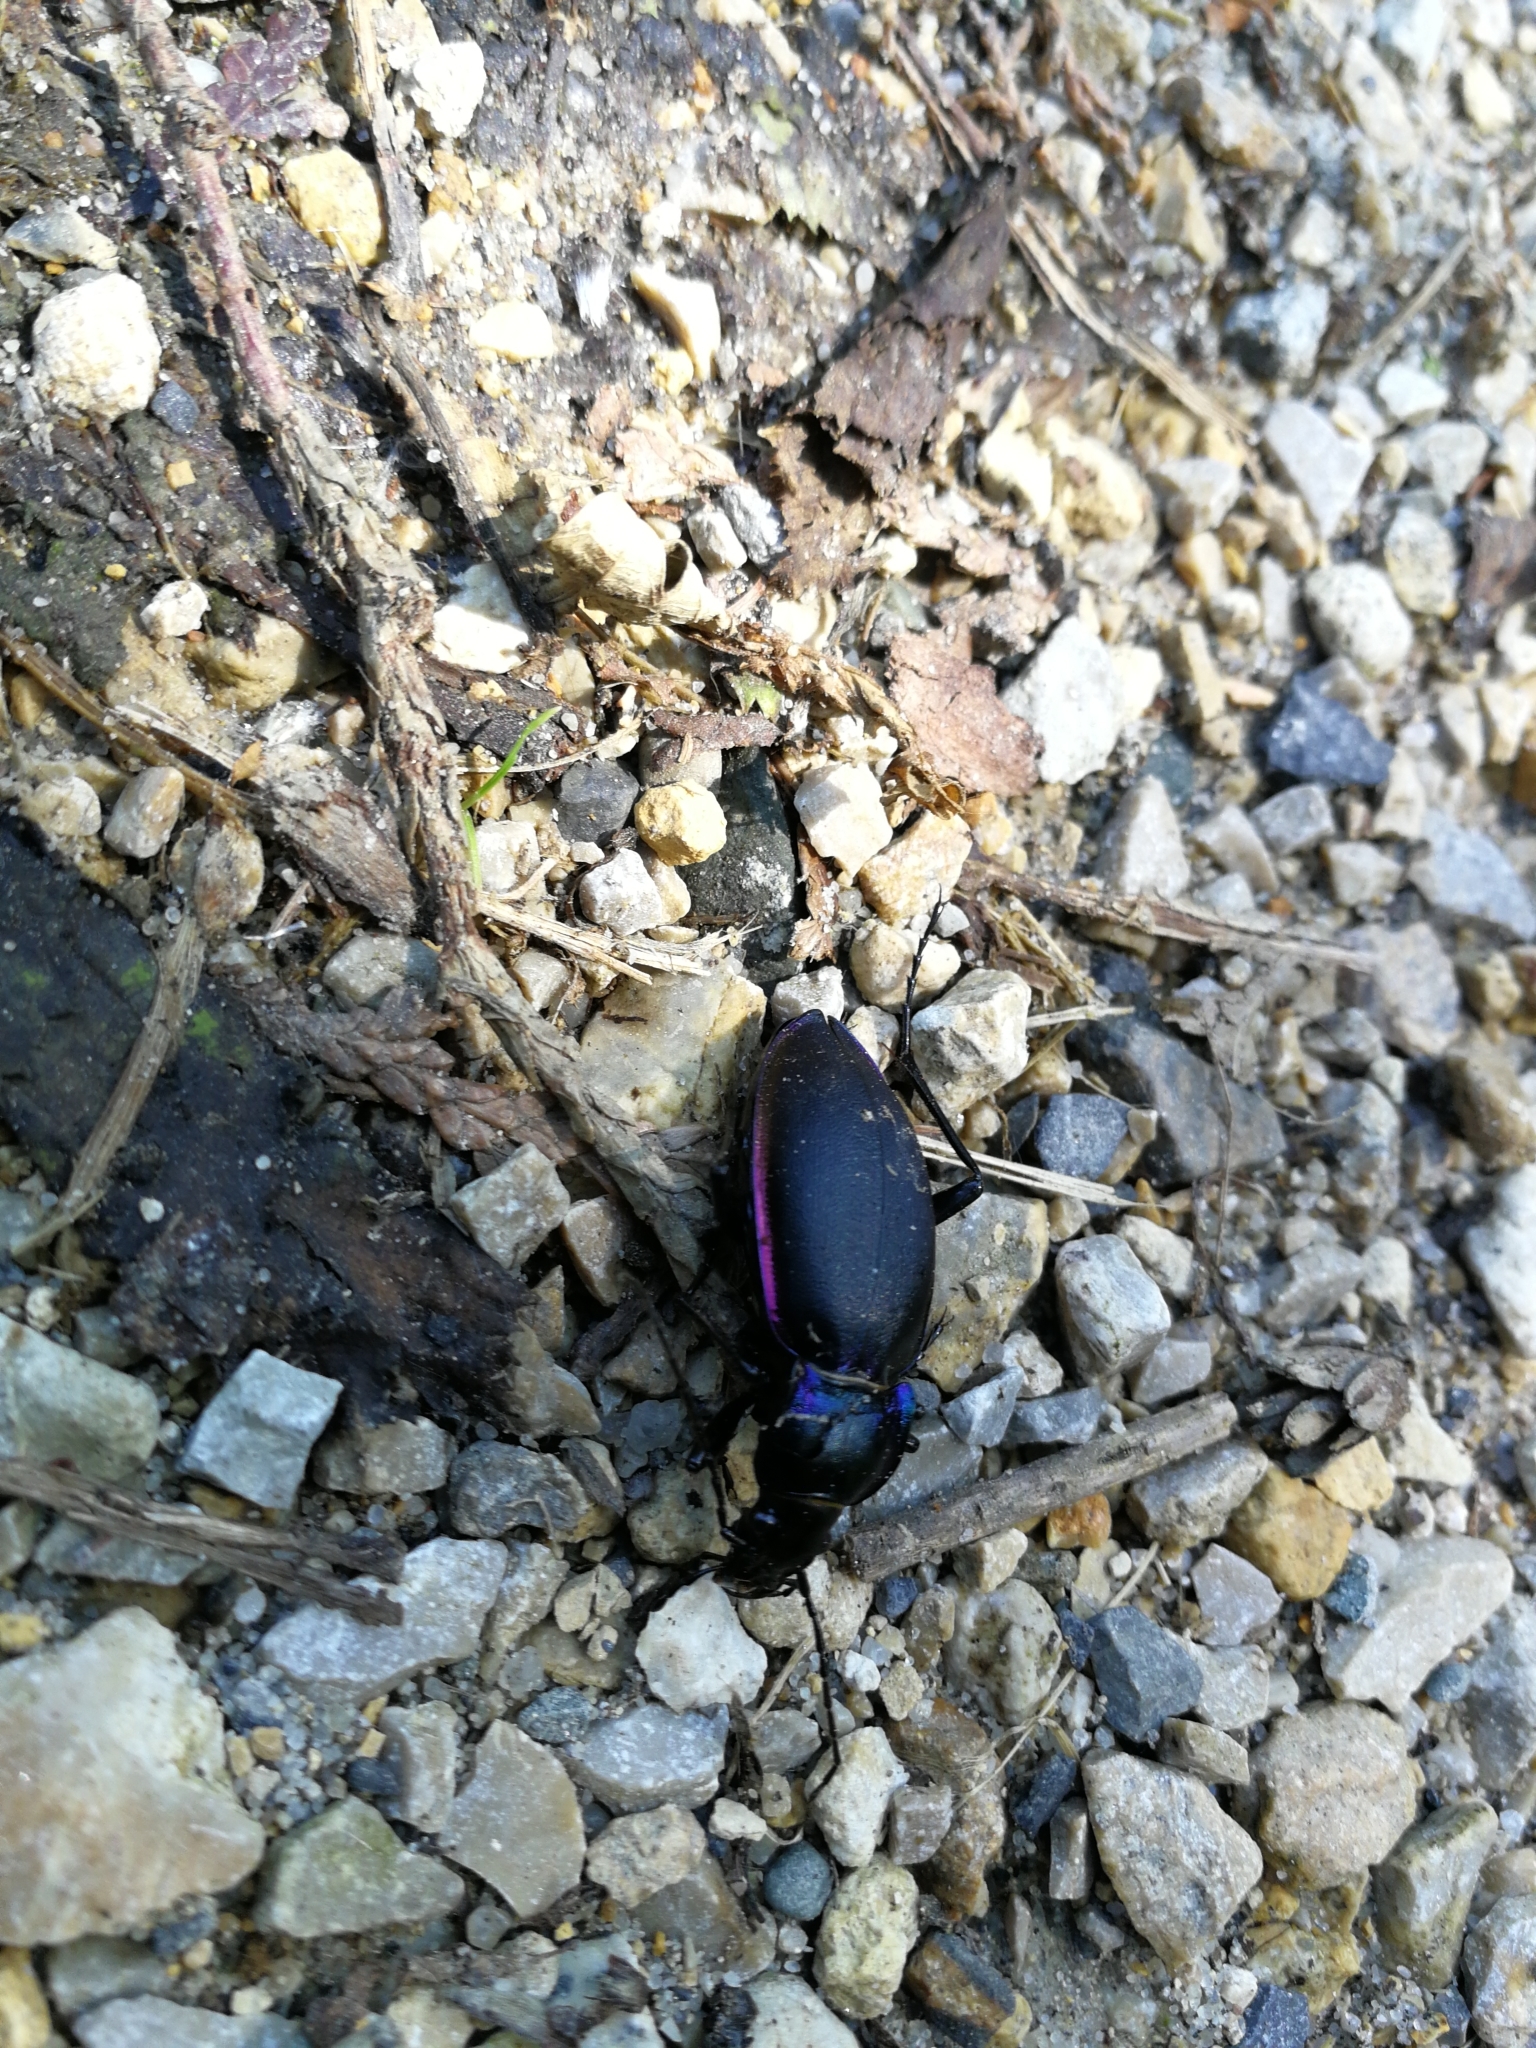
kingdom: Animalia
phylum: Arthropoda
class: Insecta
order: Coleoptera
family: Carabidae
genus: Carabus
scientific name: Carabus violaceus
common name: Violet ground beetle
